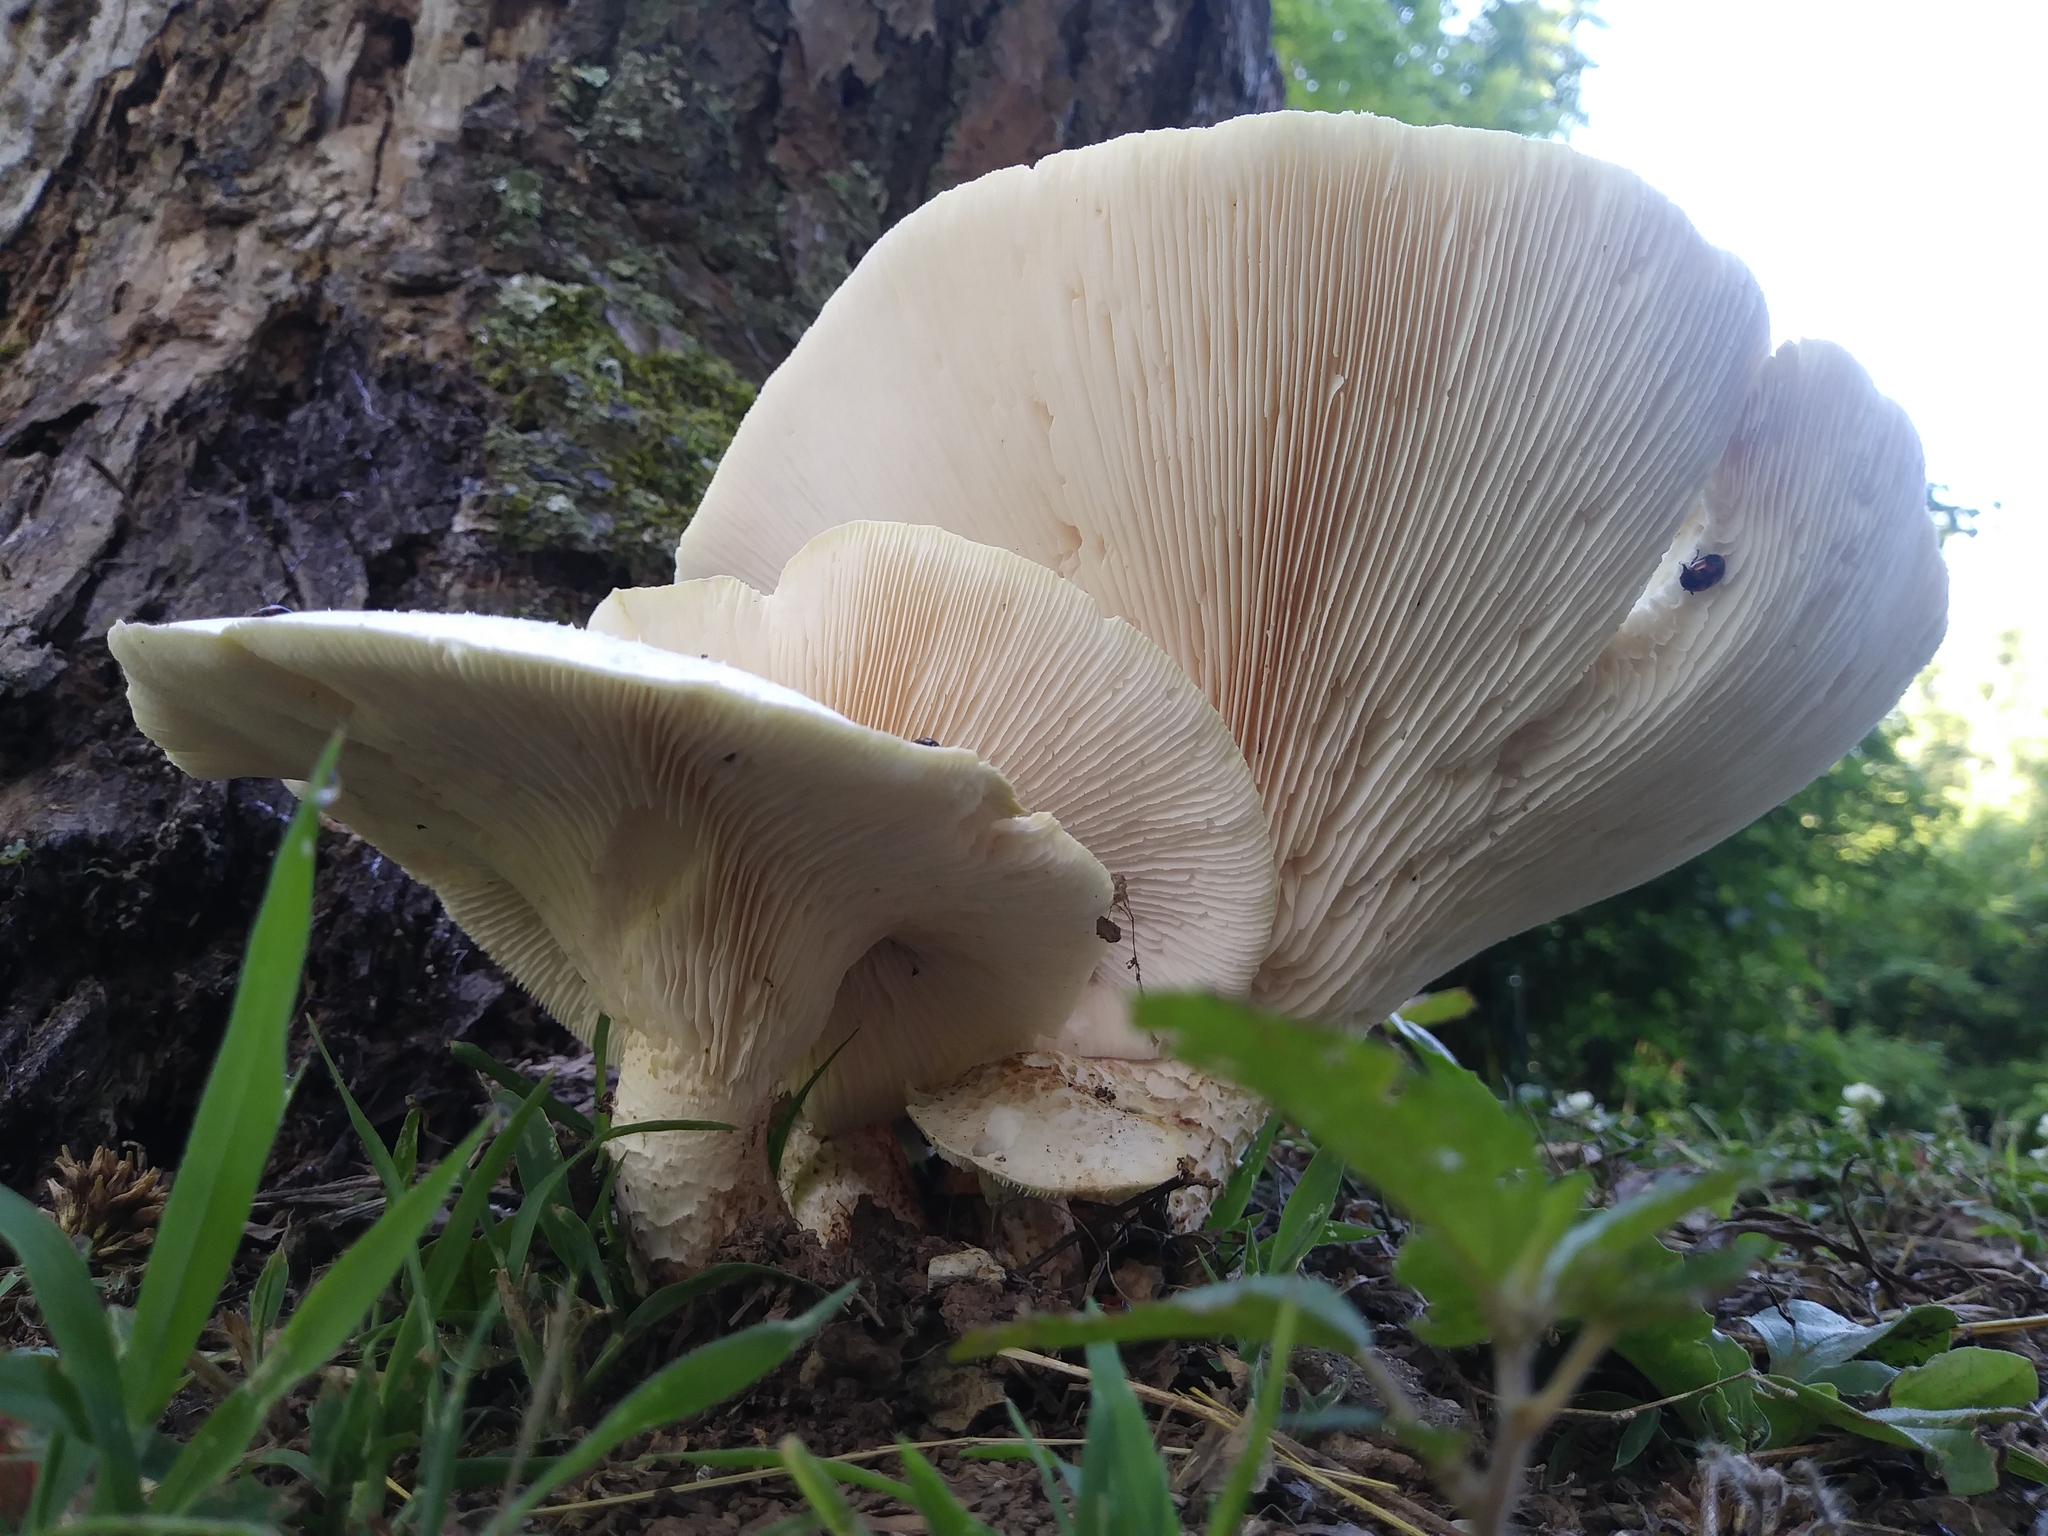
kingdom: Fungi
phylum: Basidiomycota
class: Agaricomycetes
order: Gloeophyllales
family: Gloeophyllaceae
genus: Neolentinus
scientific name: Neolentinus lepideus
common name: Scaly sawgill
